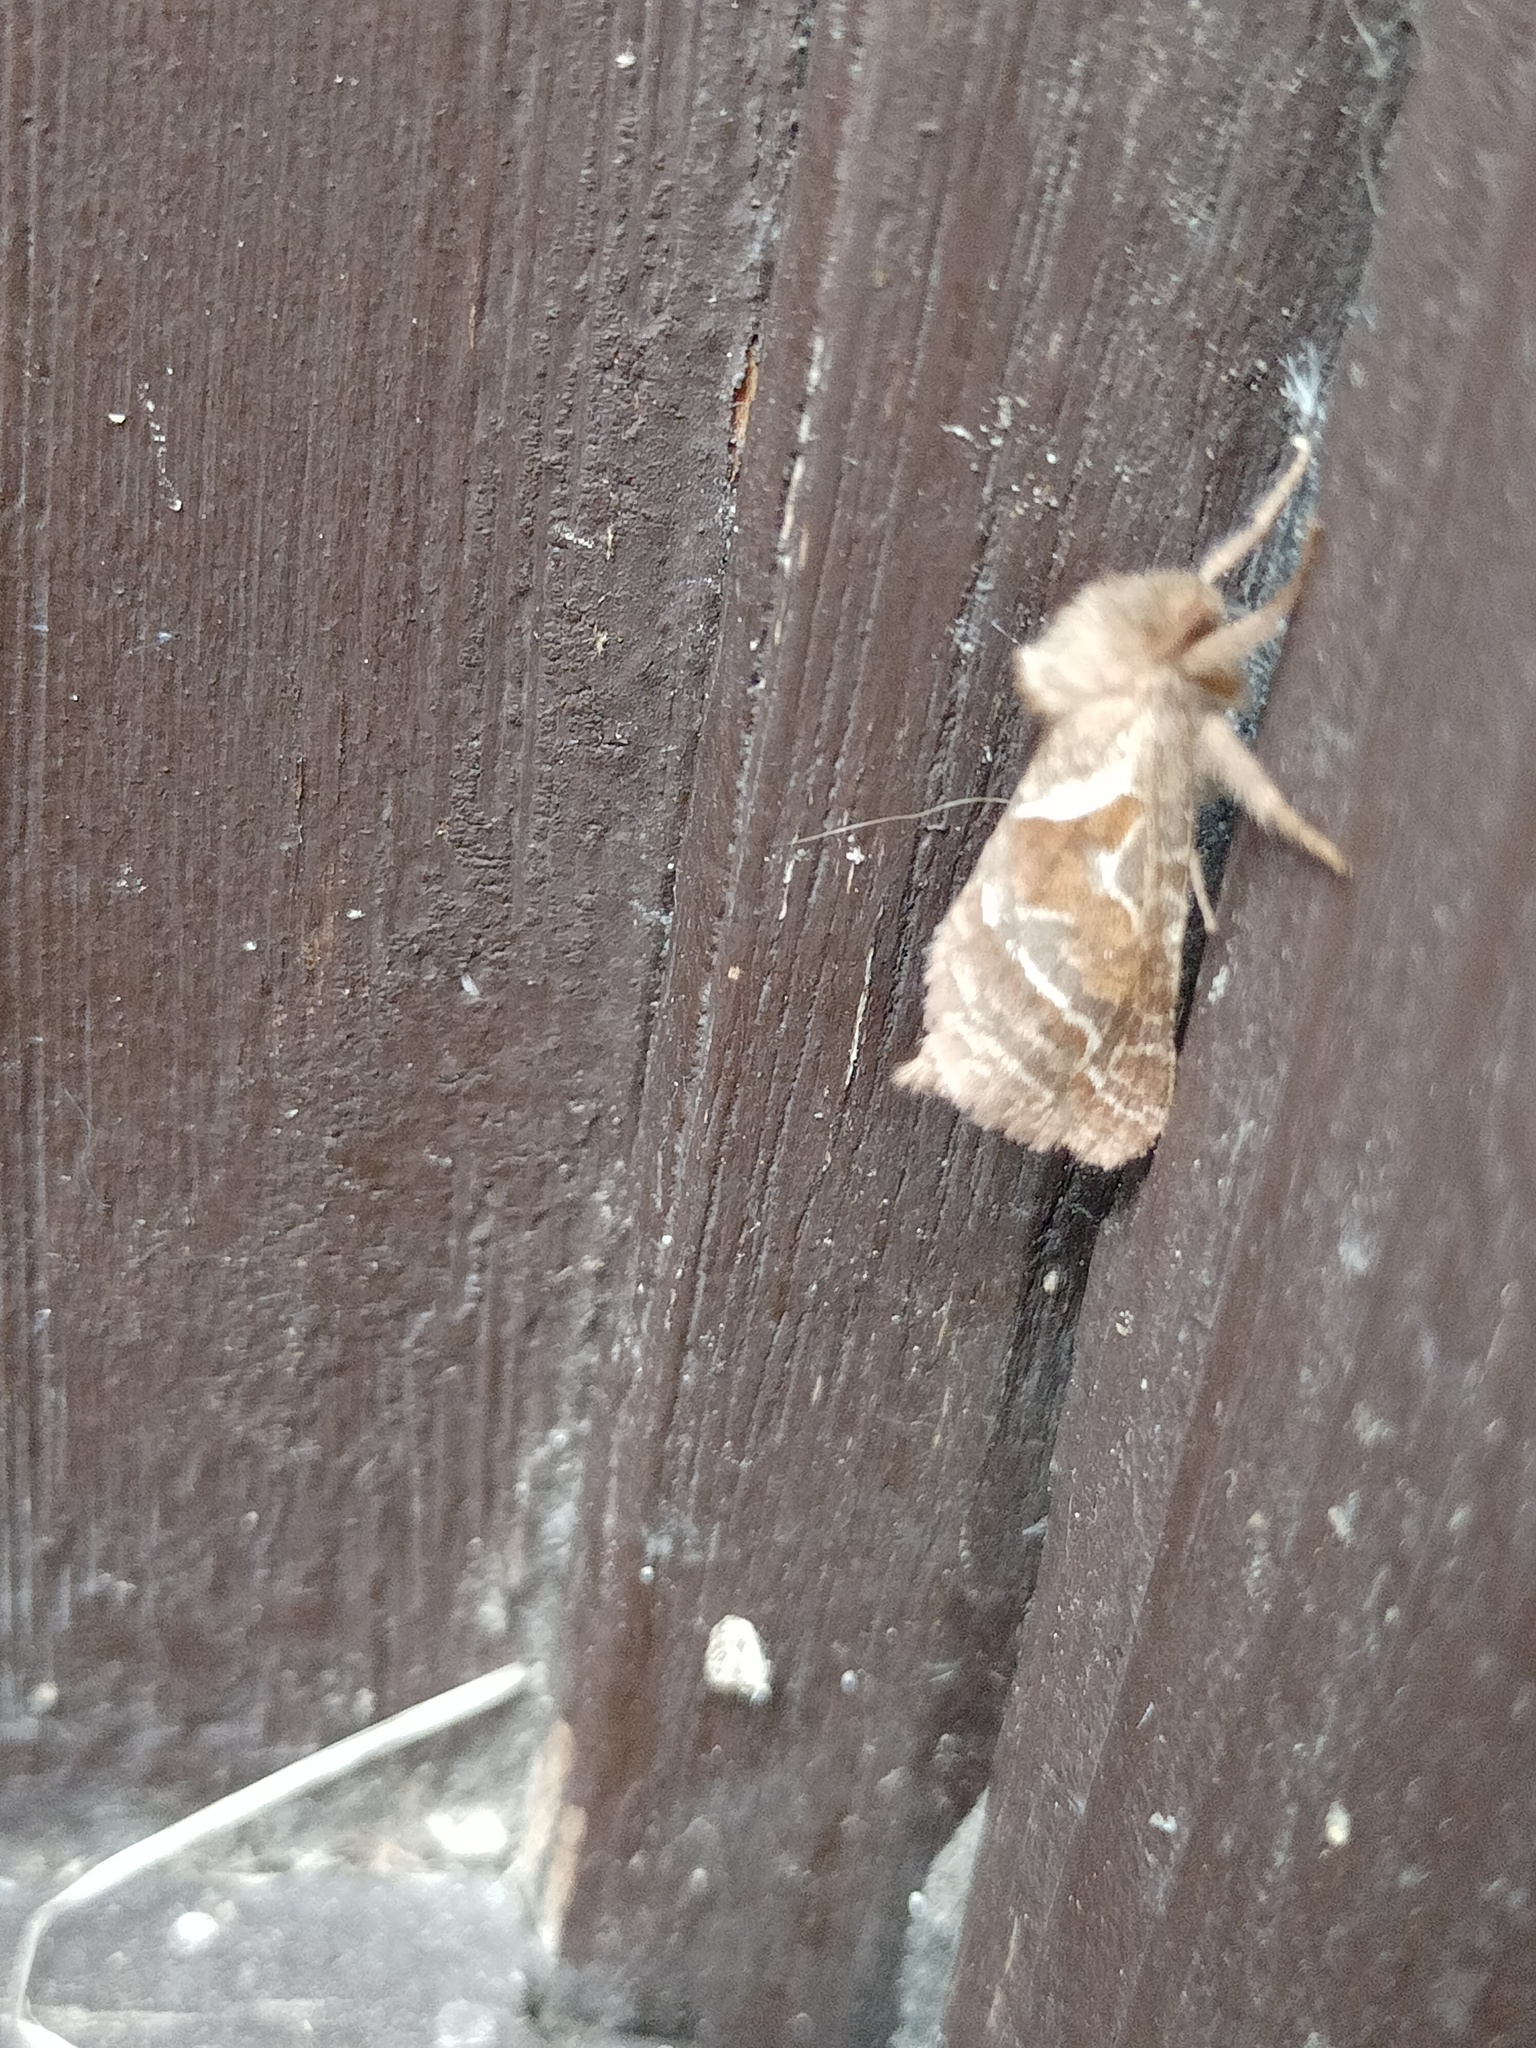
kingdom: Animalia
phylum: Arthropoda
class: Insecta
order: Lepidoptera
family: Hepialidae
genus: Triodia
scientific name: Triodia sylvina
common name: Orange swift
